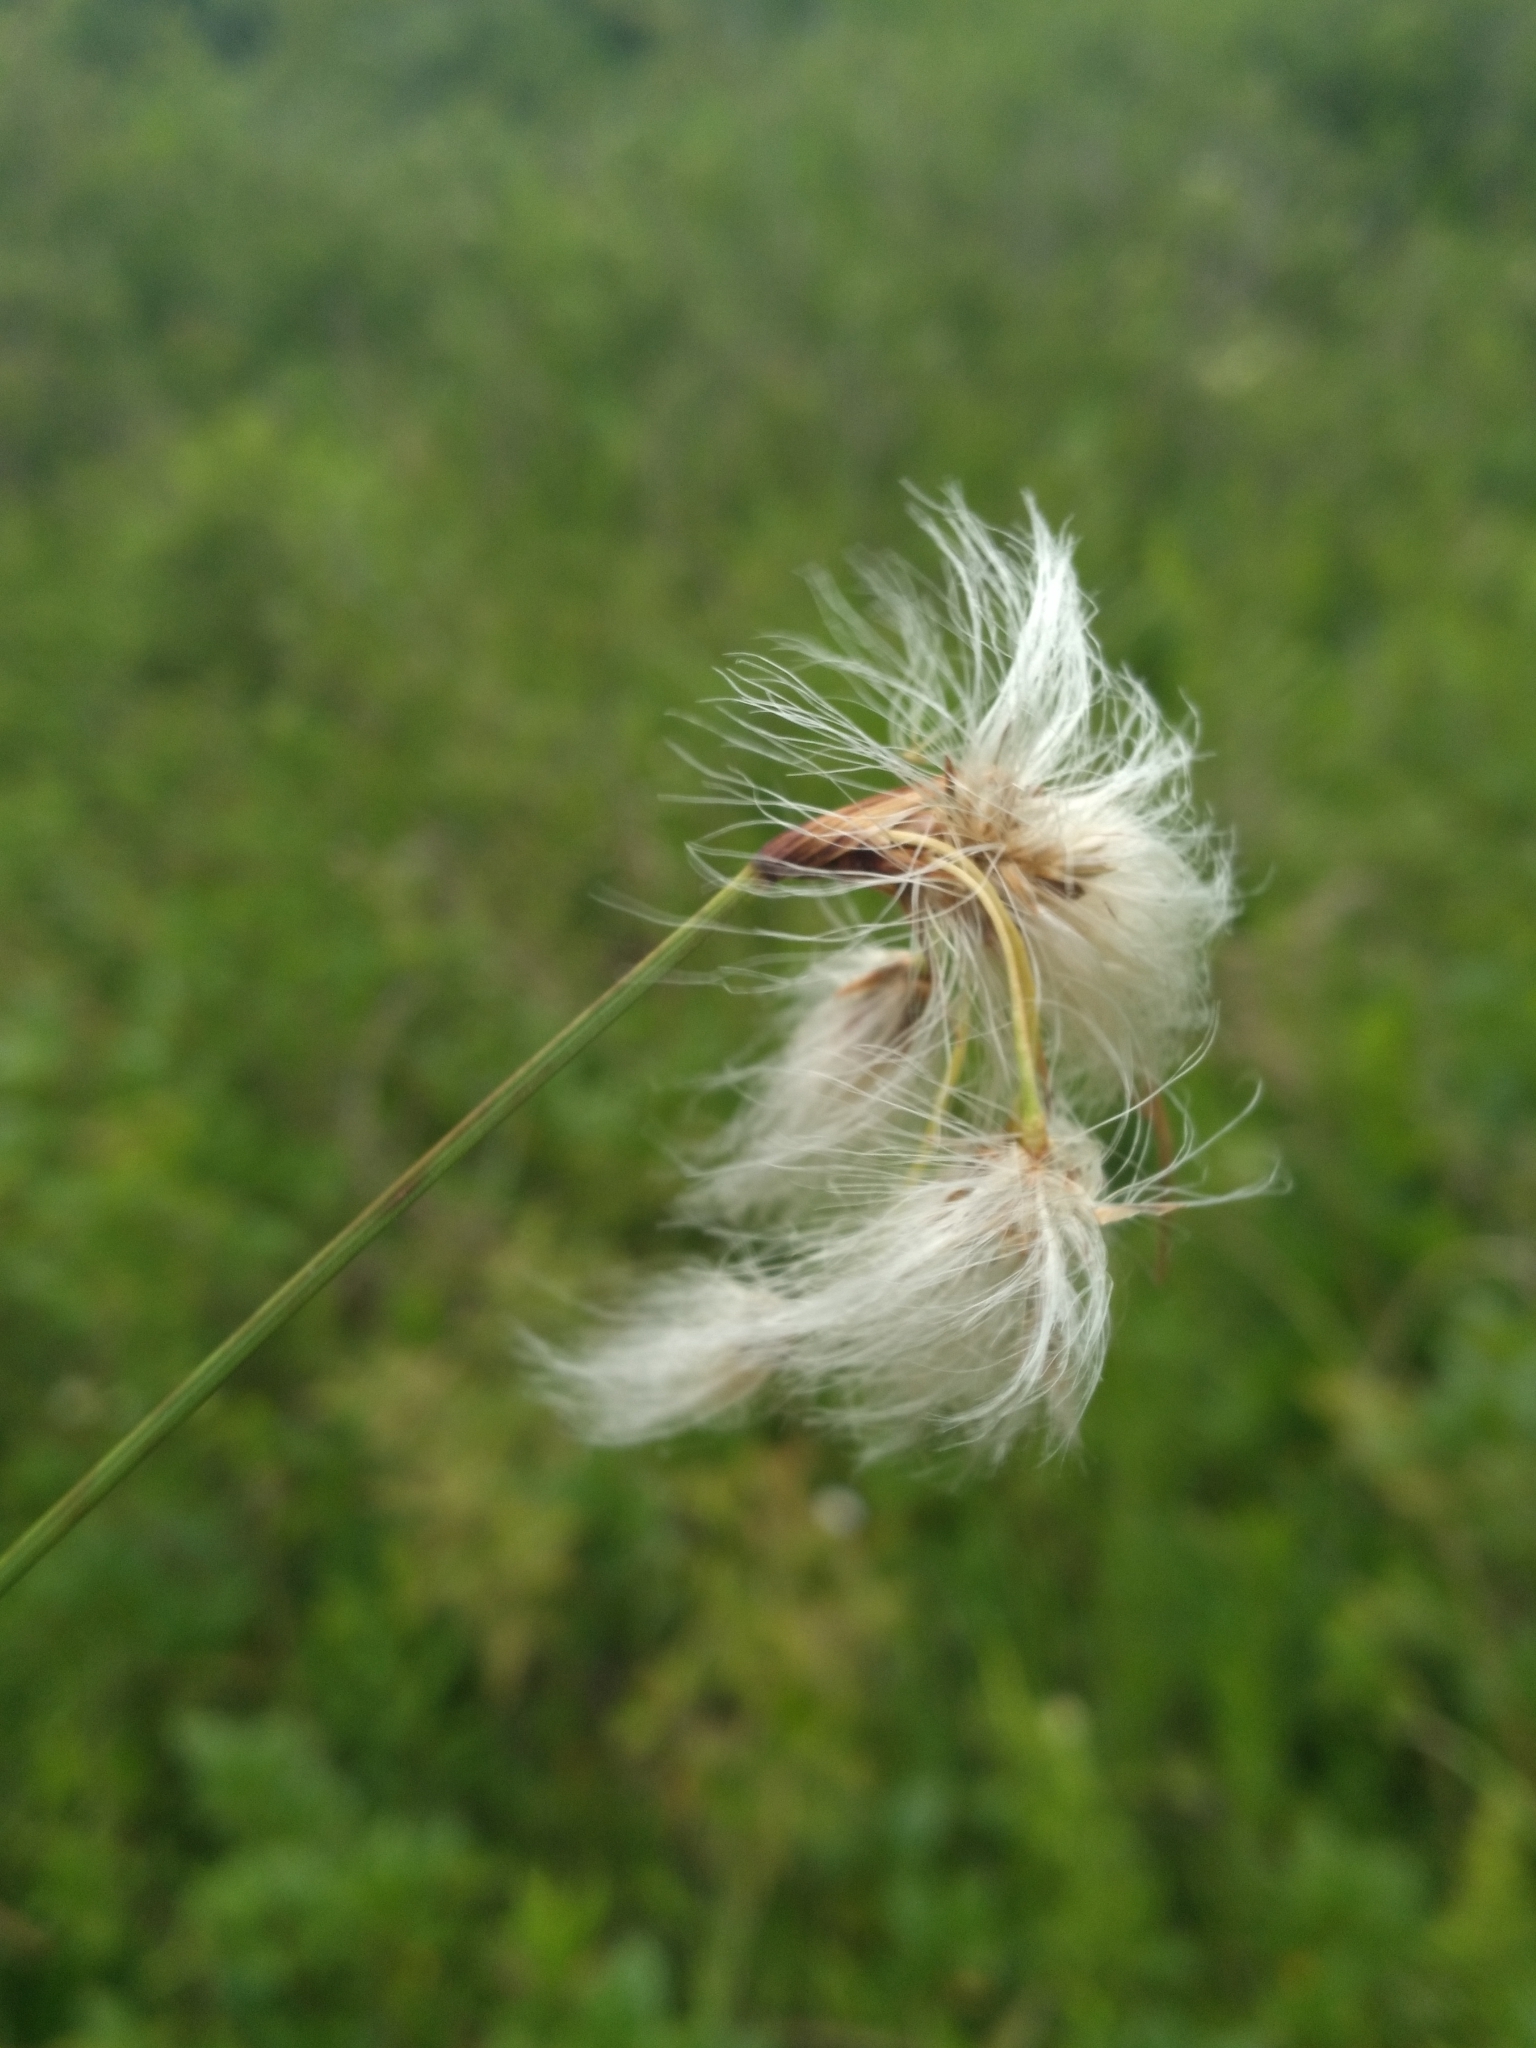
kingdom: Plantae
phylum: Tracheophyta
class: Liliopsida
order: Poales
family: Cyperaceae
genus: Eriophorum
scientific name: Eriophorum viridicarinatum
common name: Green-keeled cottongrass
